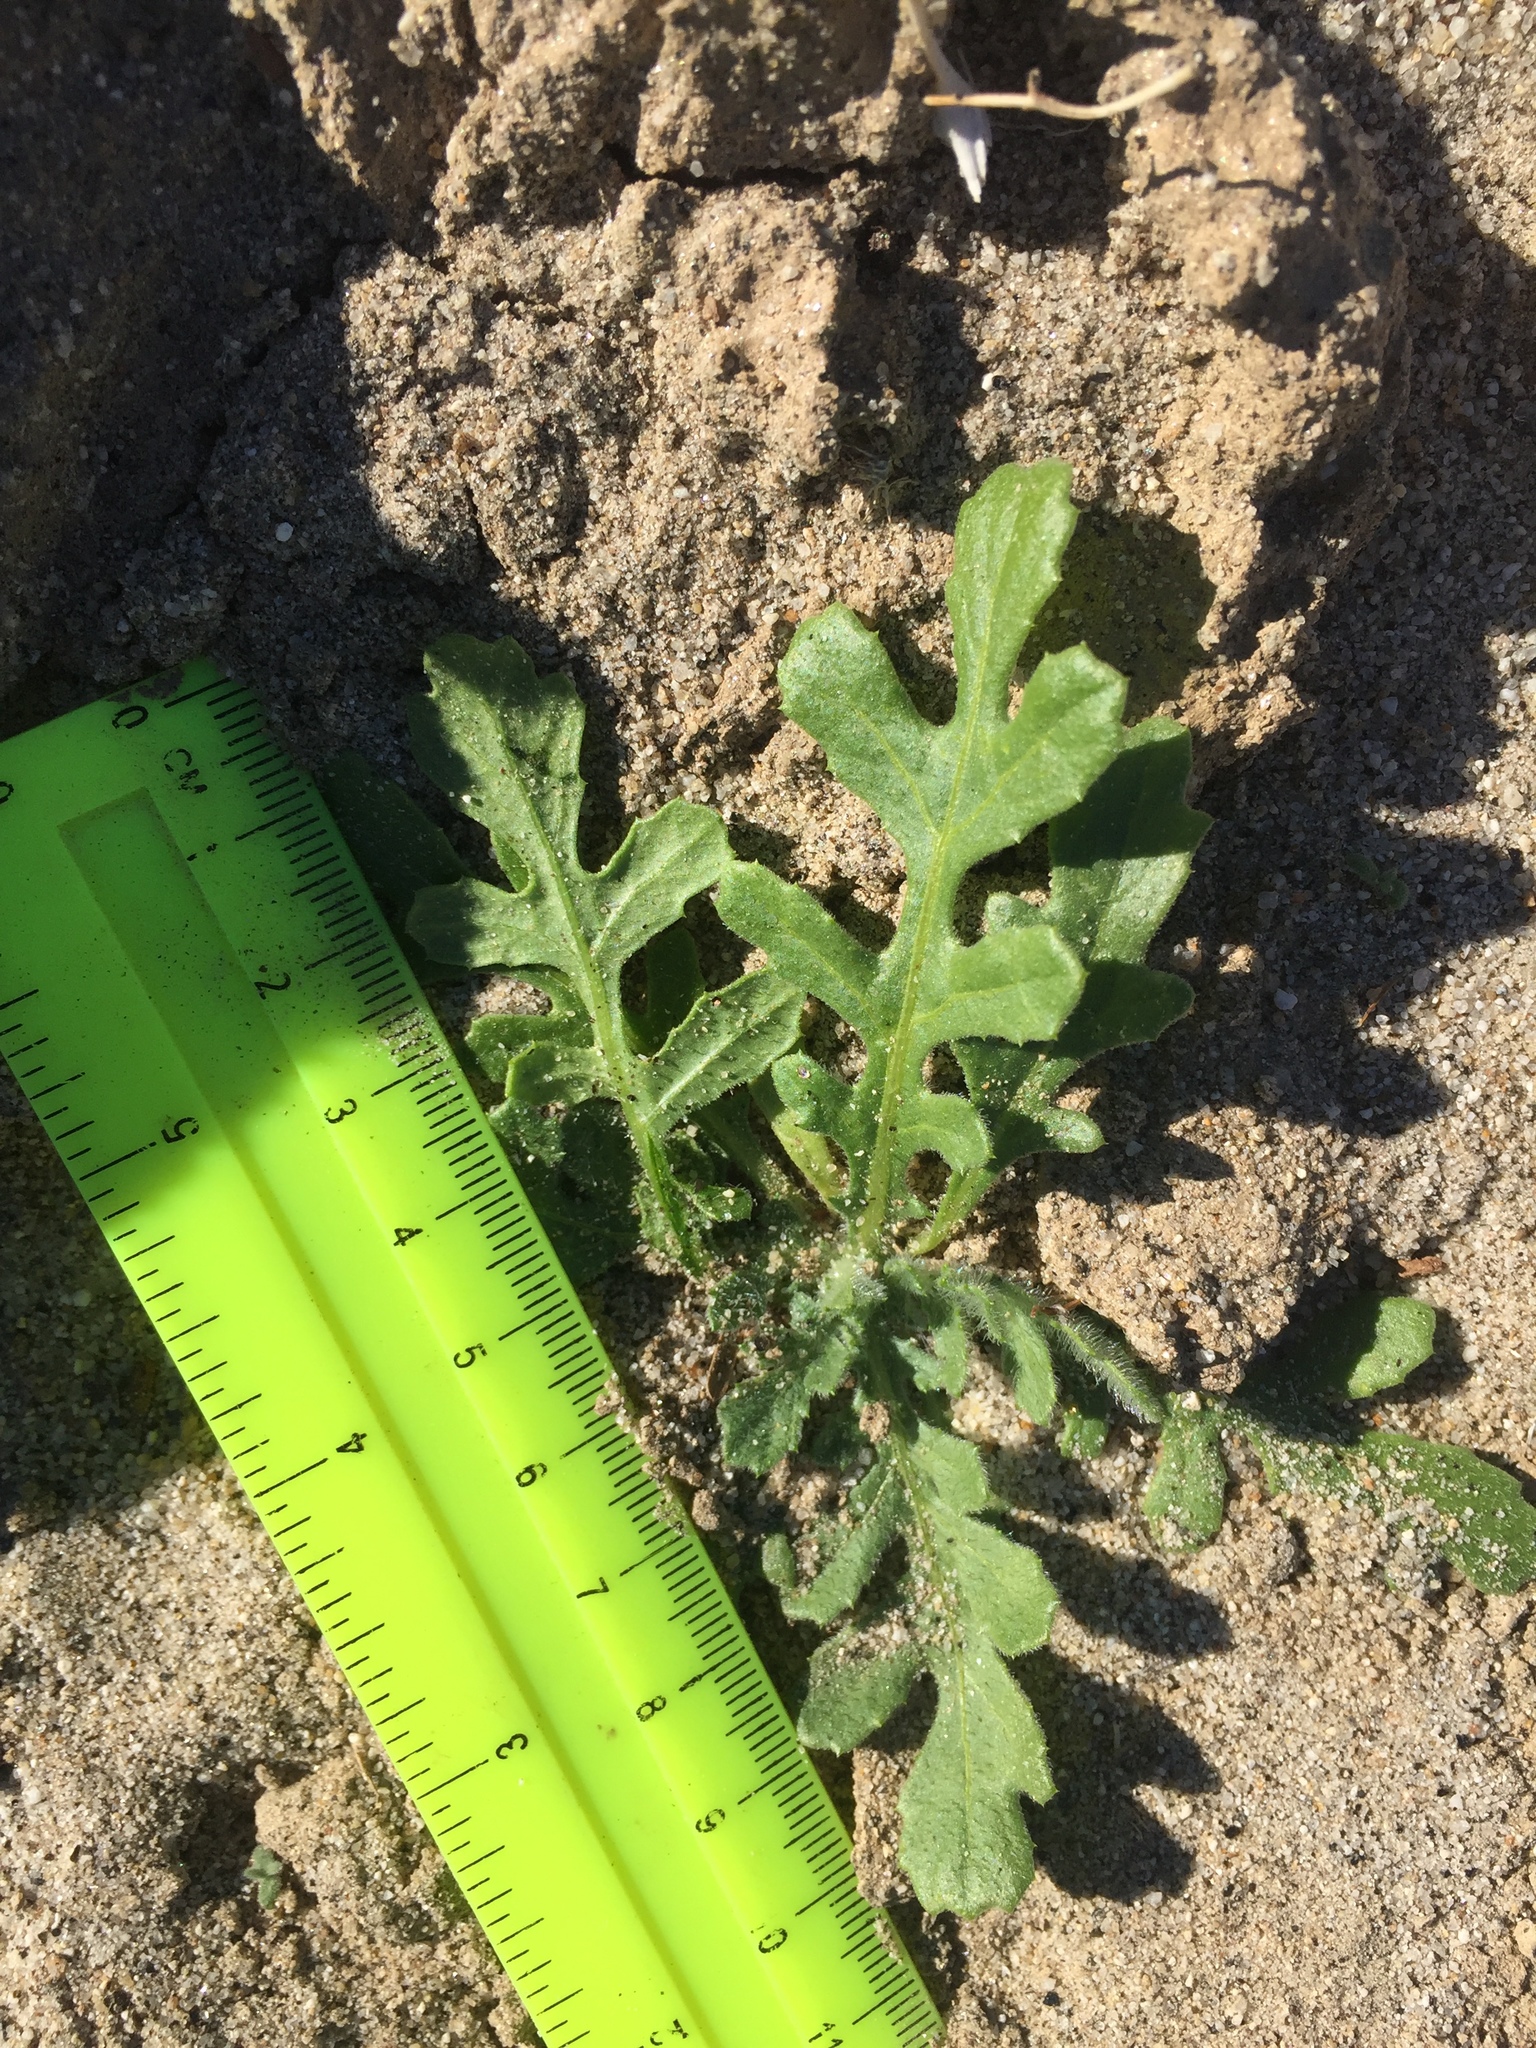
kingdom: Plantae
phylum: Tracheophyta
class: Magnoliopsida
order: Asterales
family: Asteraceae
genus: Volutaria
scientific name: Volutaria tubuliflora
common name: Desert knapweed
